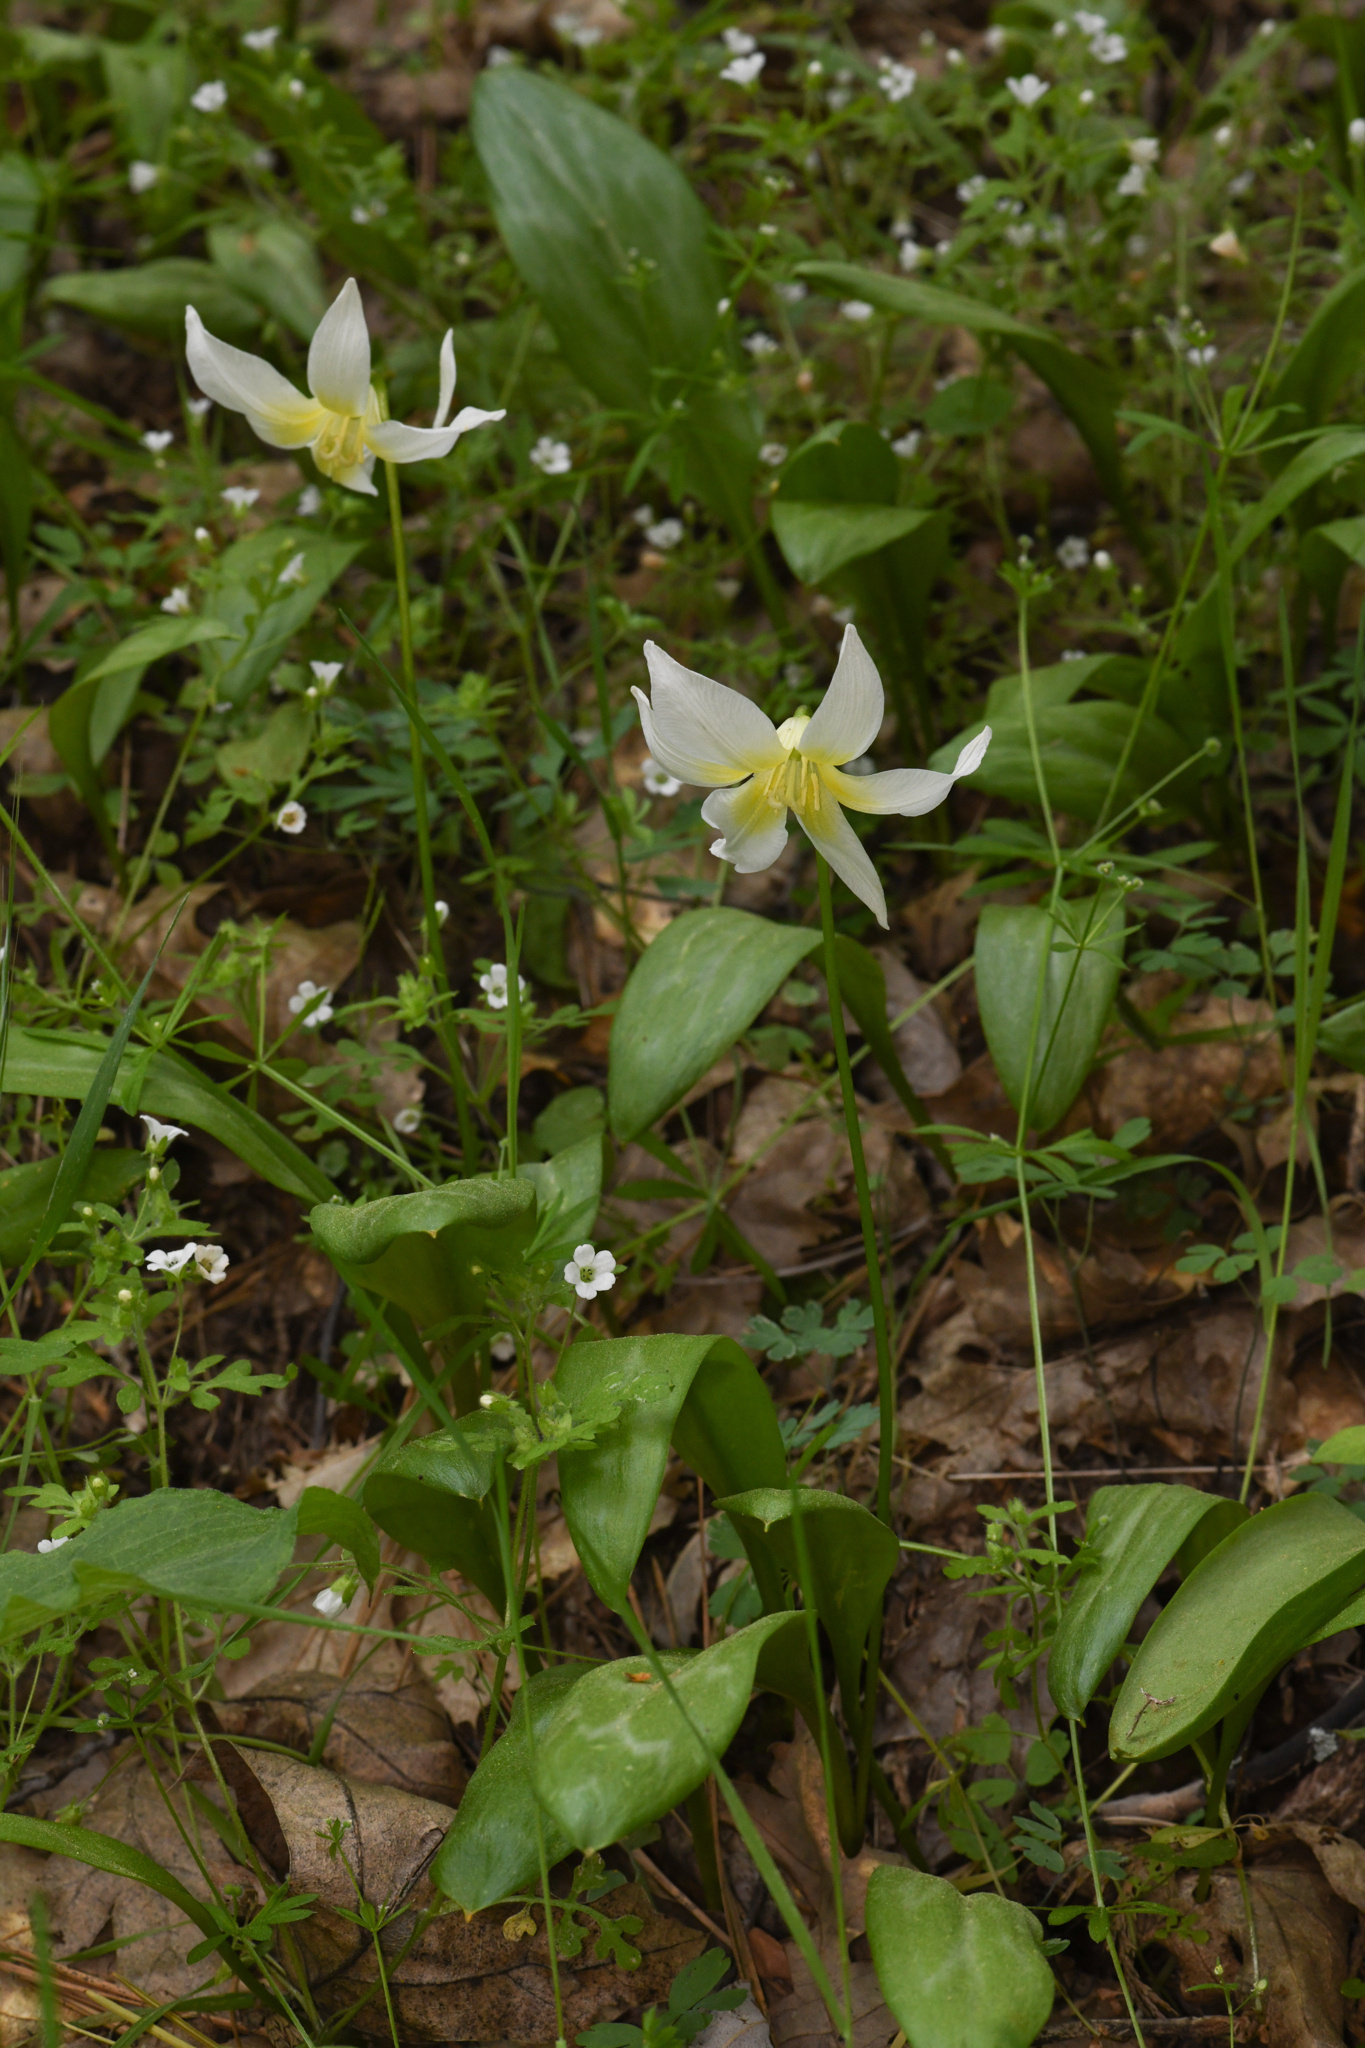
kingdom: Plantae
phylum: Tracheophyta
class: Liliopsida
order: Liliales
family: Liliaceae
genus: Erythronium
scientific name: Erythronium multiscapideum
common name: Sierra foothills fawn-lily
